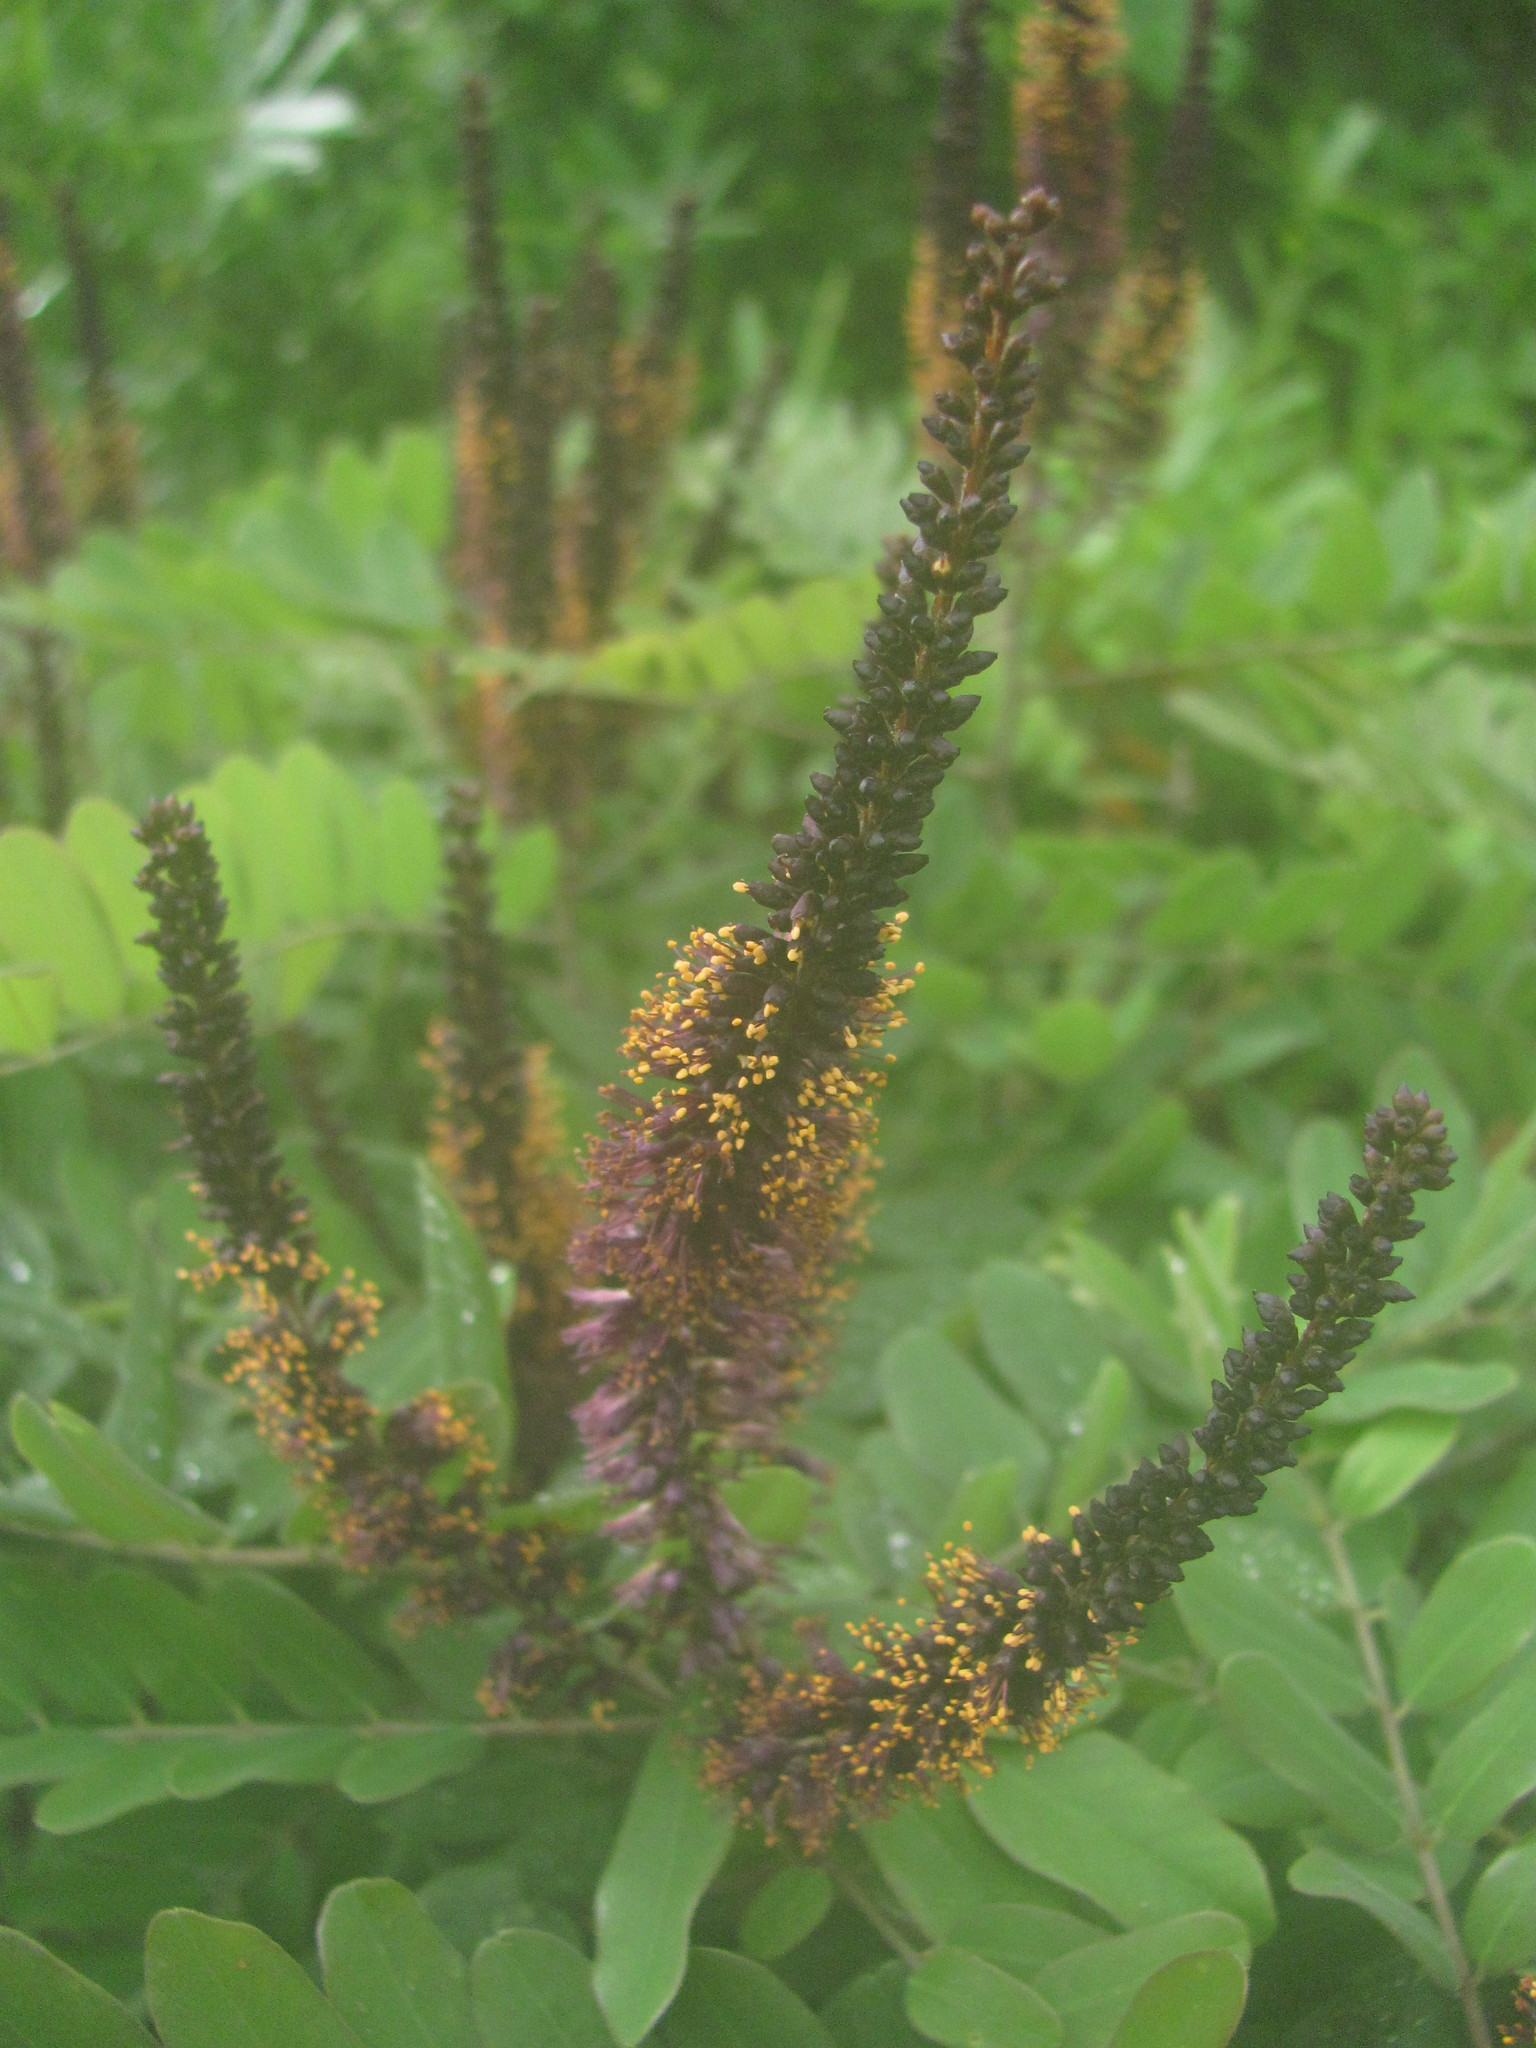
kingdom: Plantae
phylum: Tracheophyta
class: Magnoliopsida
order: Fabales
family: Fabaceae
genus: Amorpha
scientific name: Amorpha fruticosa
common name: False indigo
